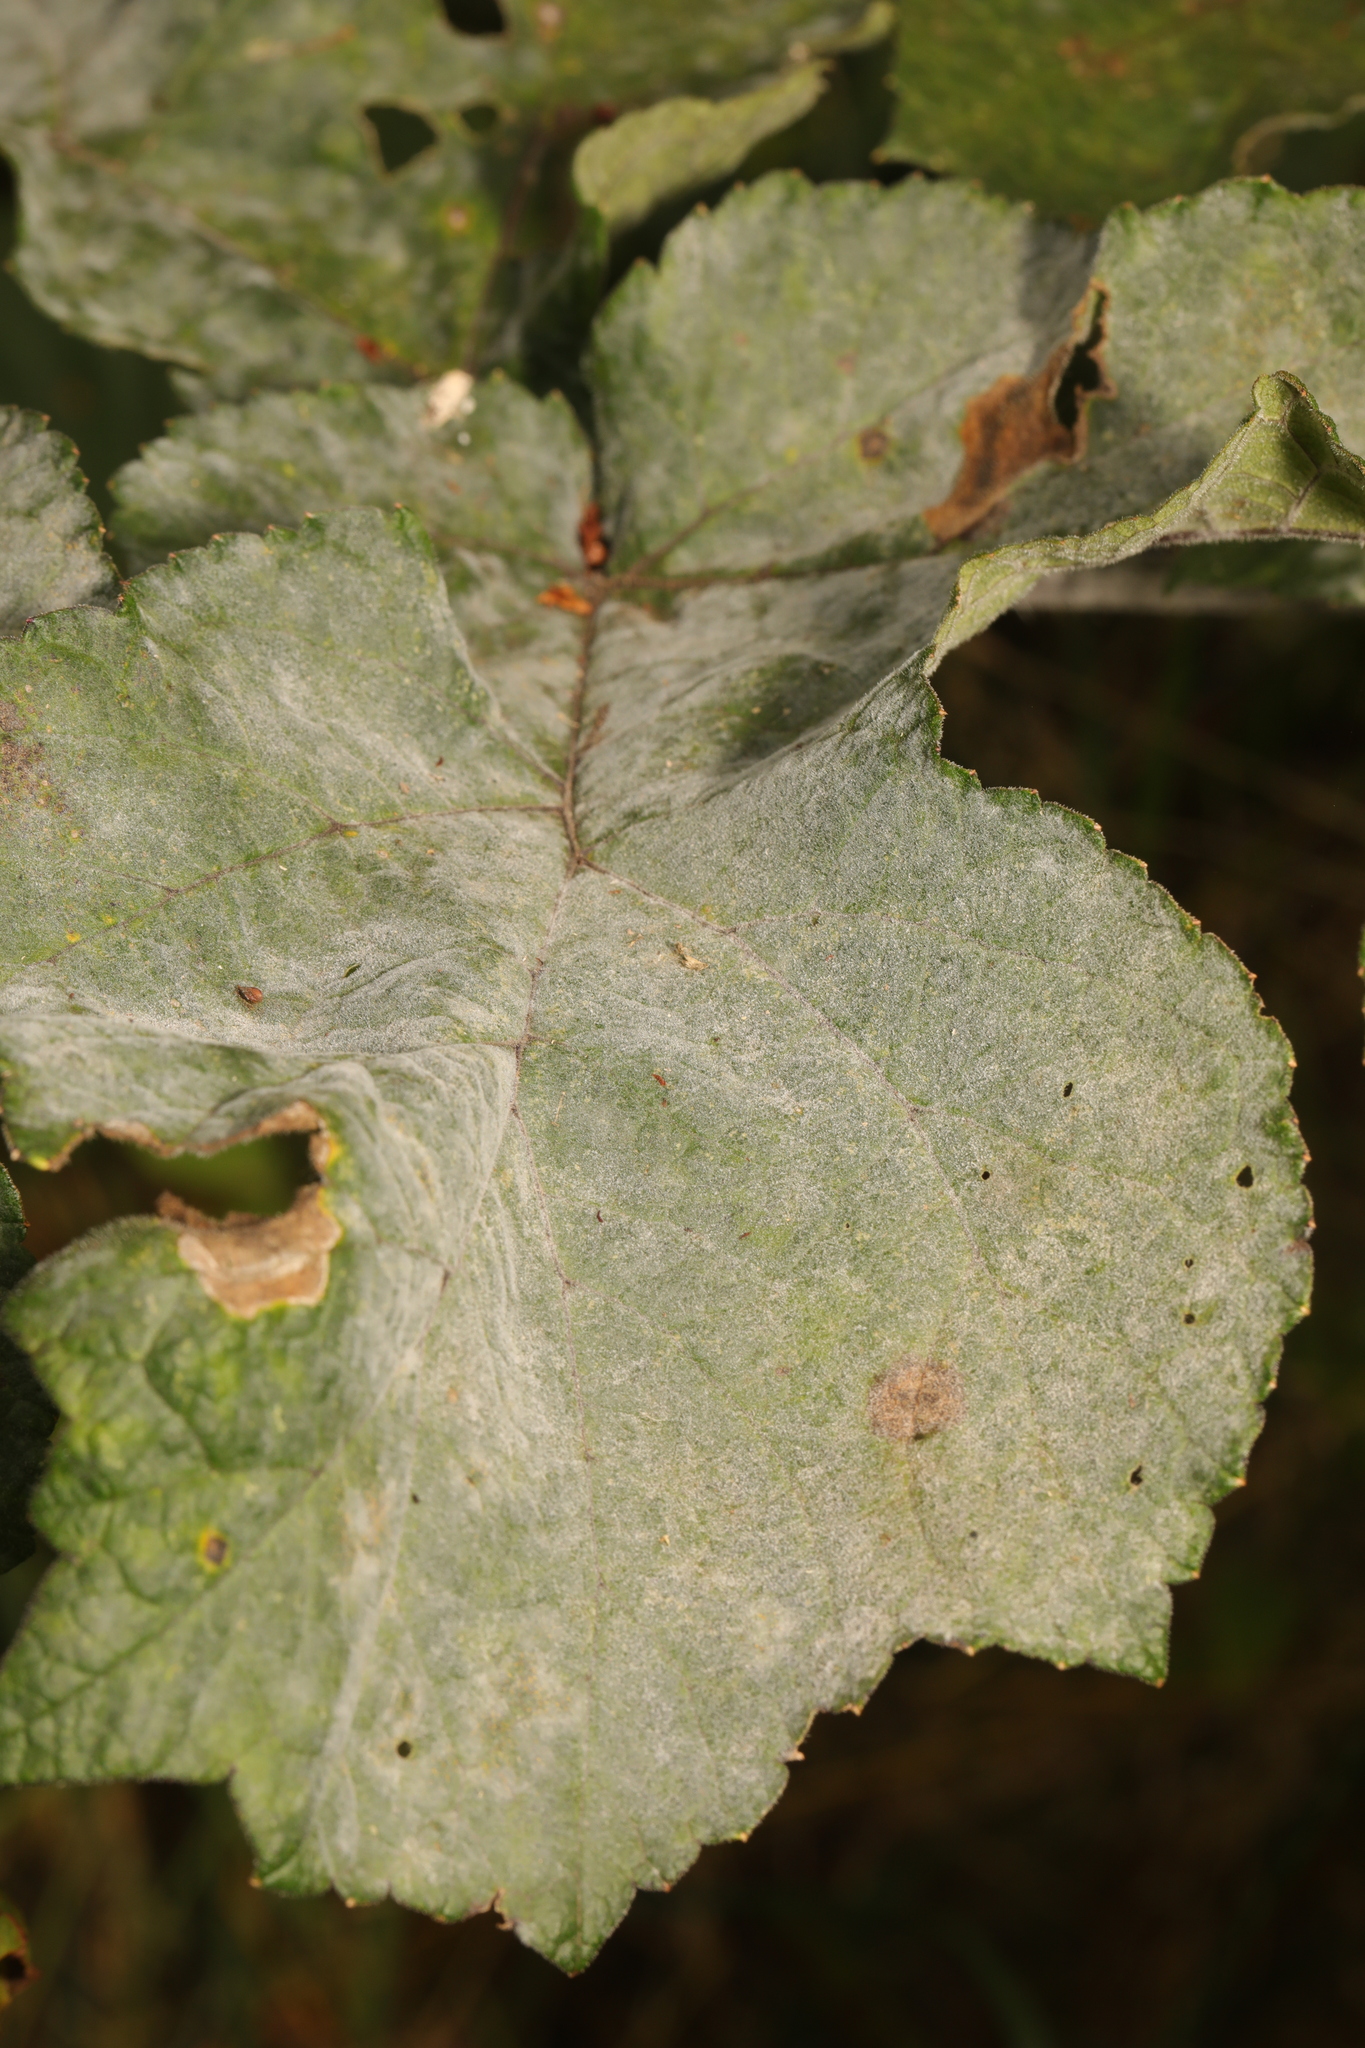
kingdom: Fungi
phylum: Ascomycota
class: Leotiomycetes
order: Helotiales
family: Erysiphaceae
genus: Erysiphe
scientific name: Erysiphe heraclei
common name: Umbellifer mildew
